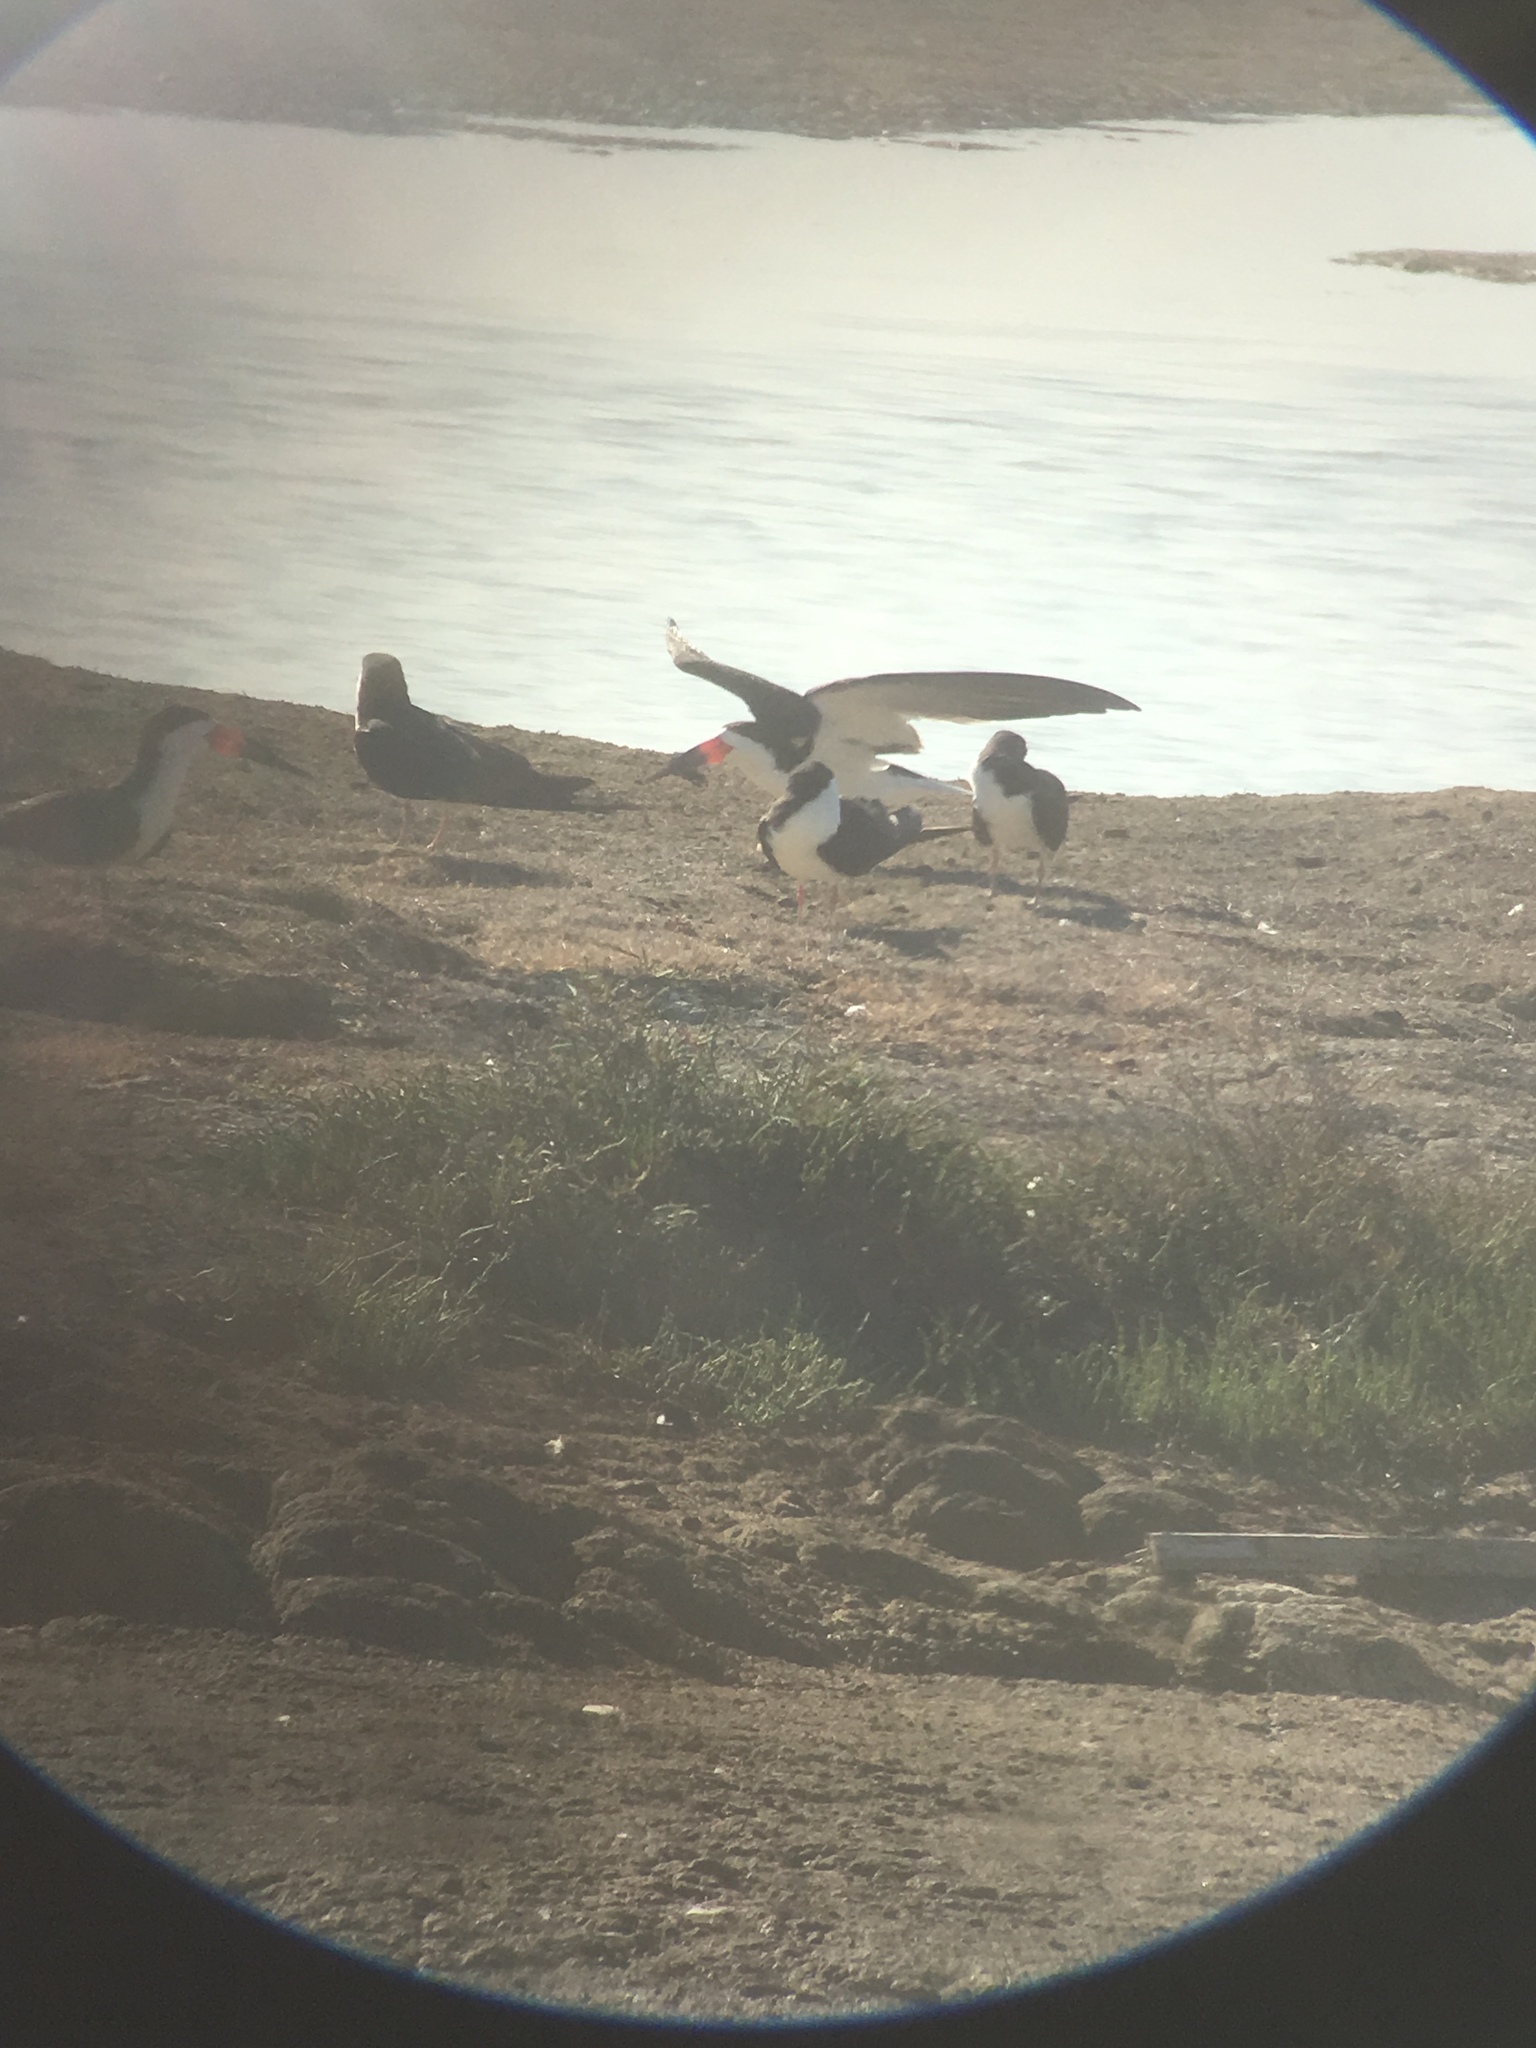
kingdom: Animalia
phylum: Chordata
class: Aves
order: Charadriiformes
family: Laridae
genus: Rynchops
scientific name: Rynchops niger
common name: Black skimmer
